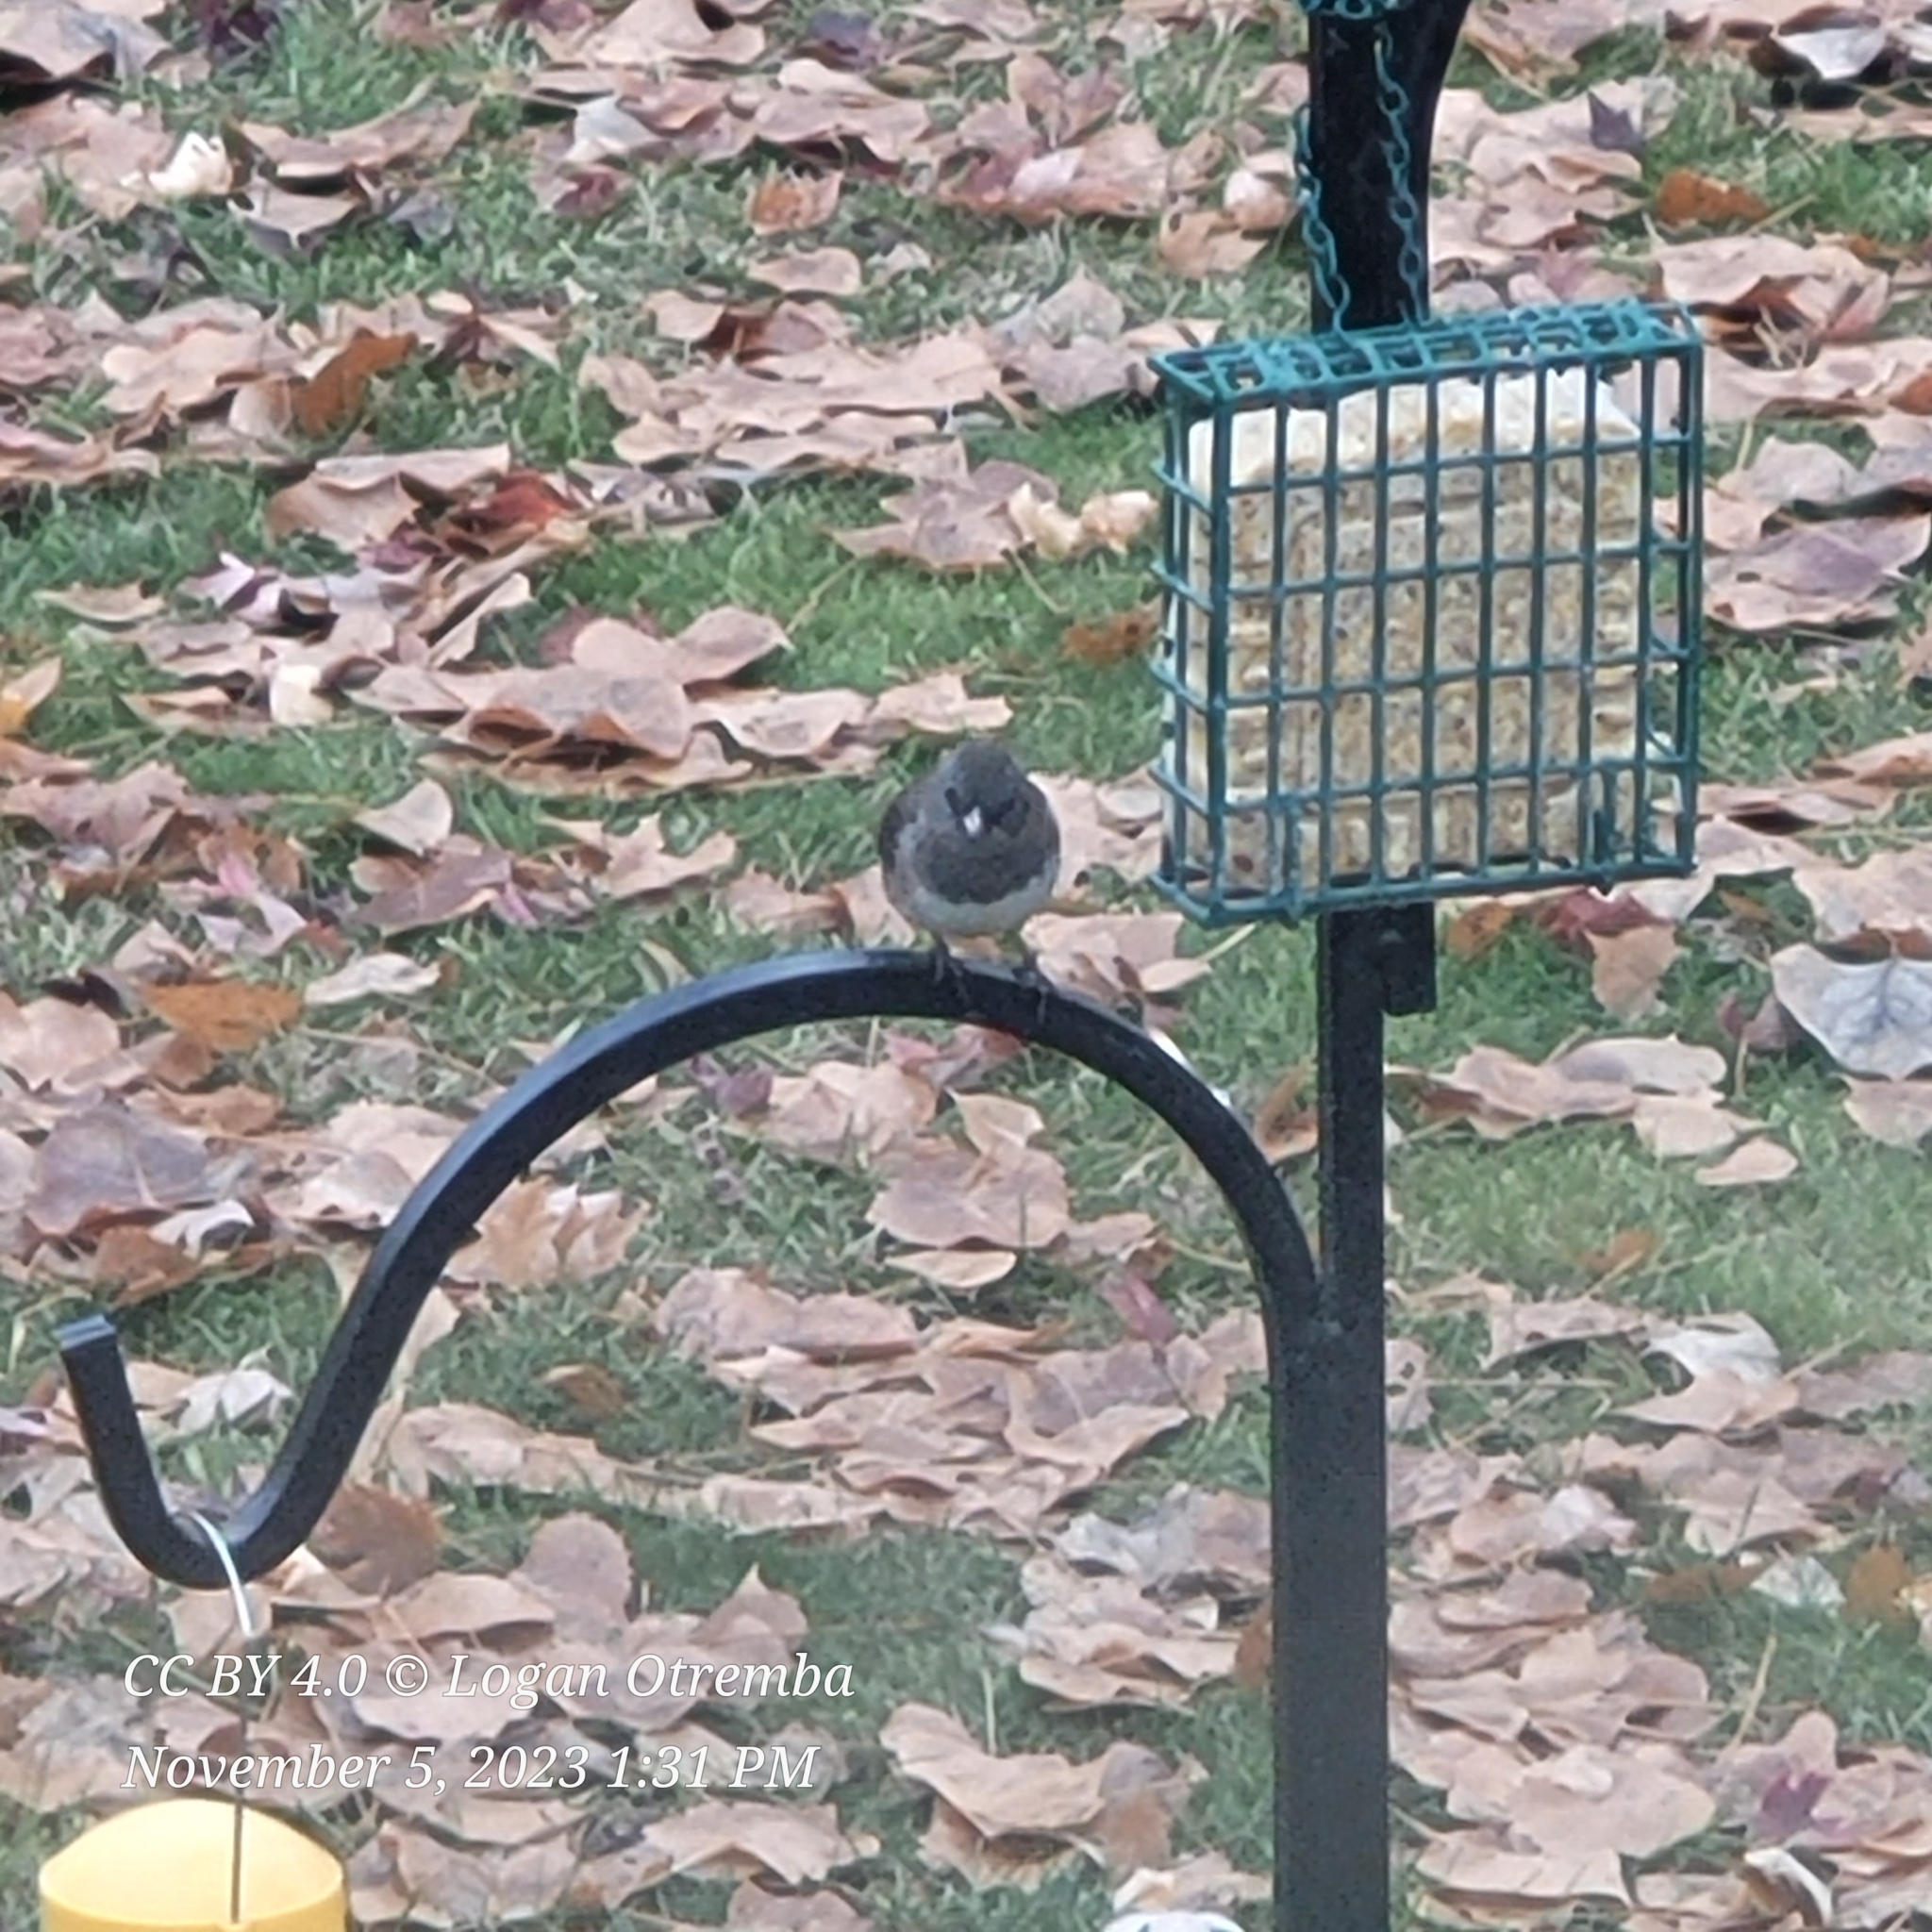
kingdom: Animalia
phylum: Chordata
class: Aves
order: Passeriformes
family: Passerellidae
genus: Junco
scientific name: Junco hyemalis
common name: Dark-eyed junco
